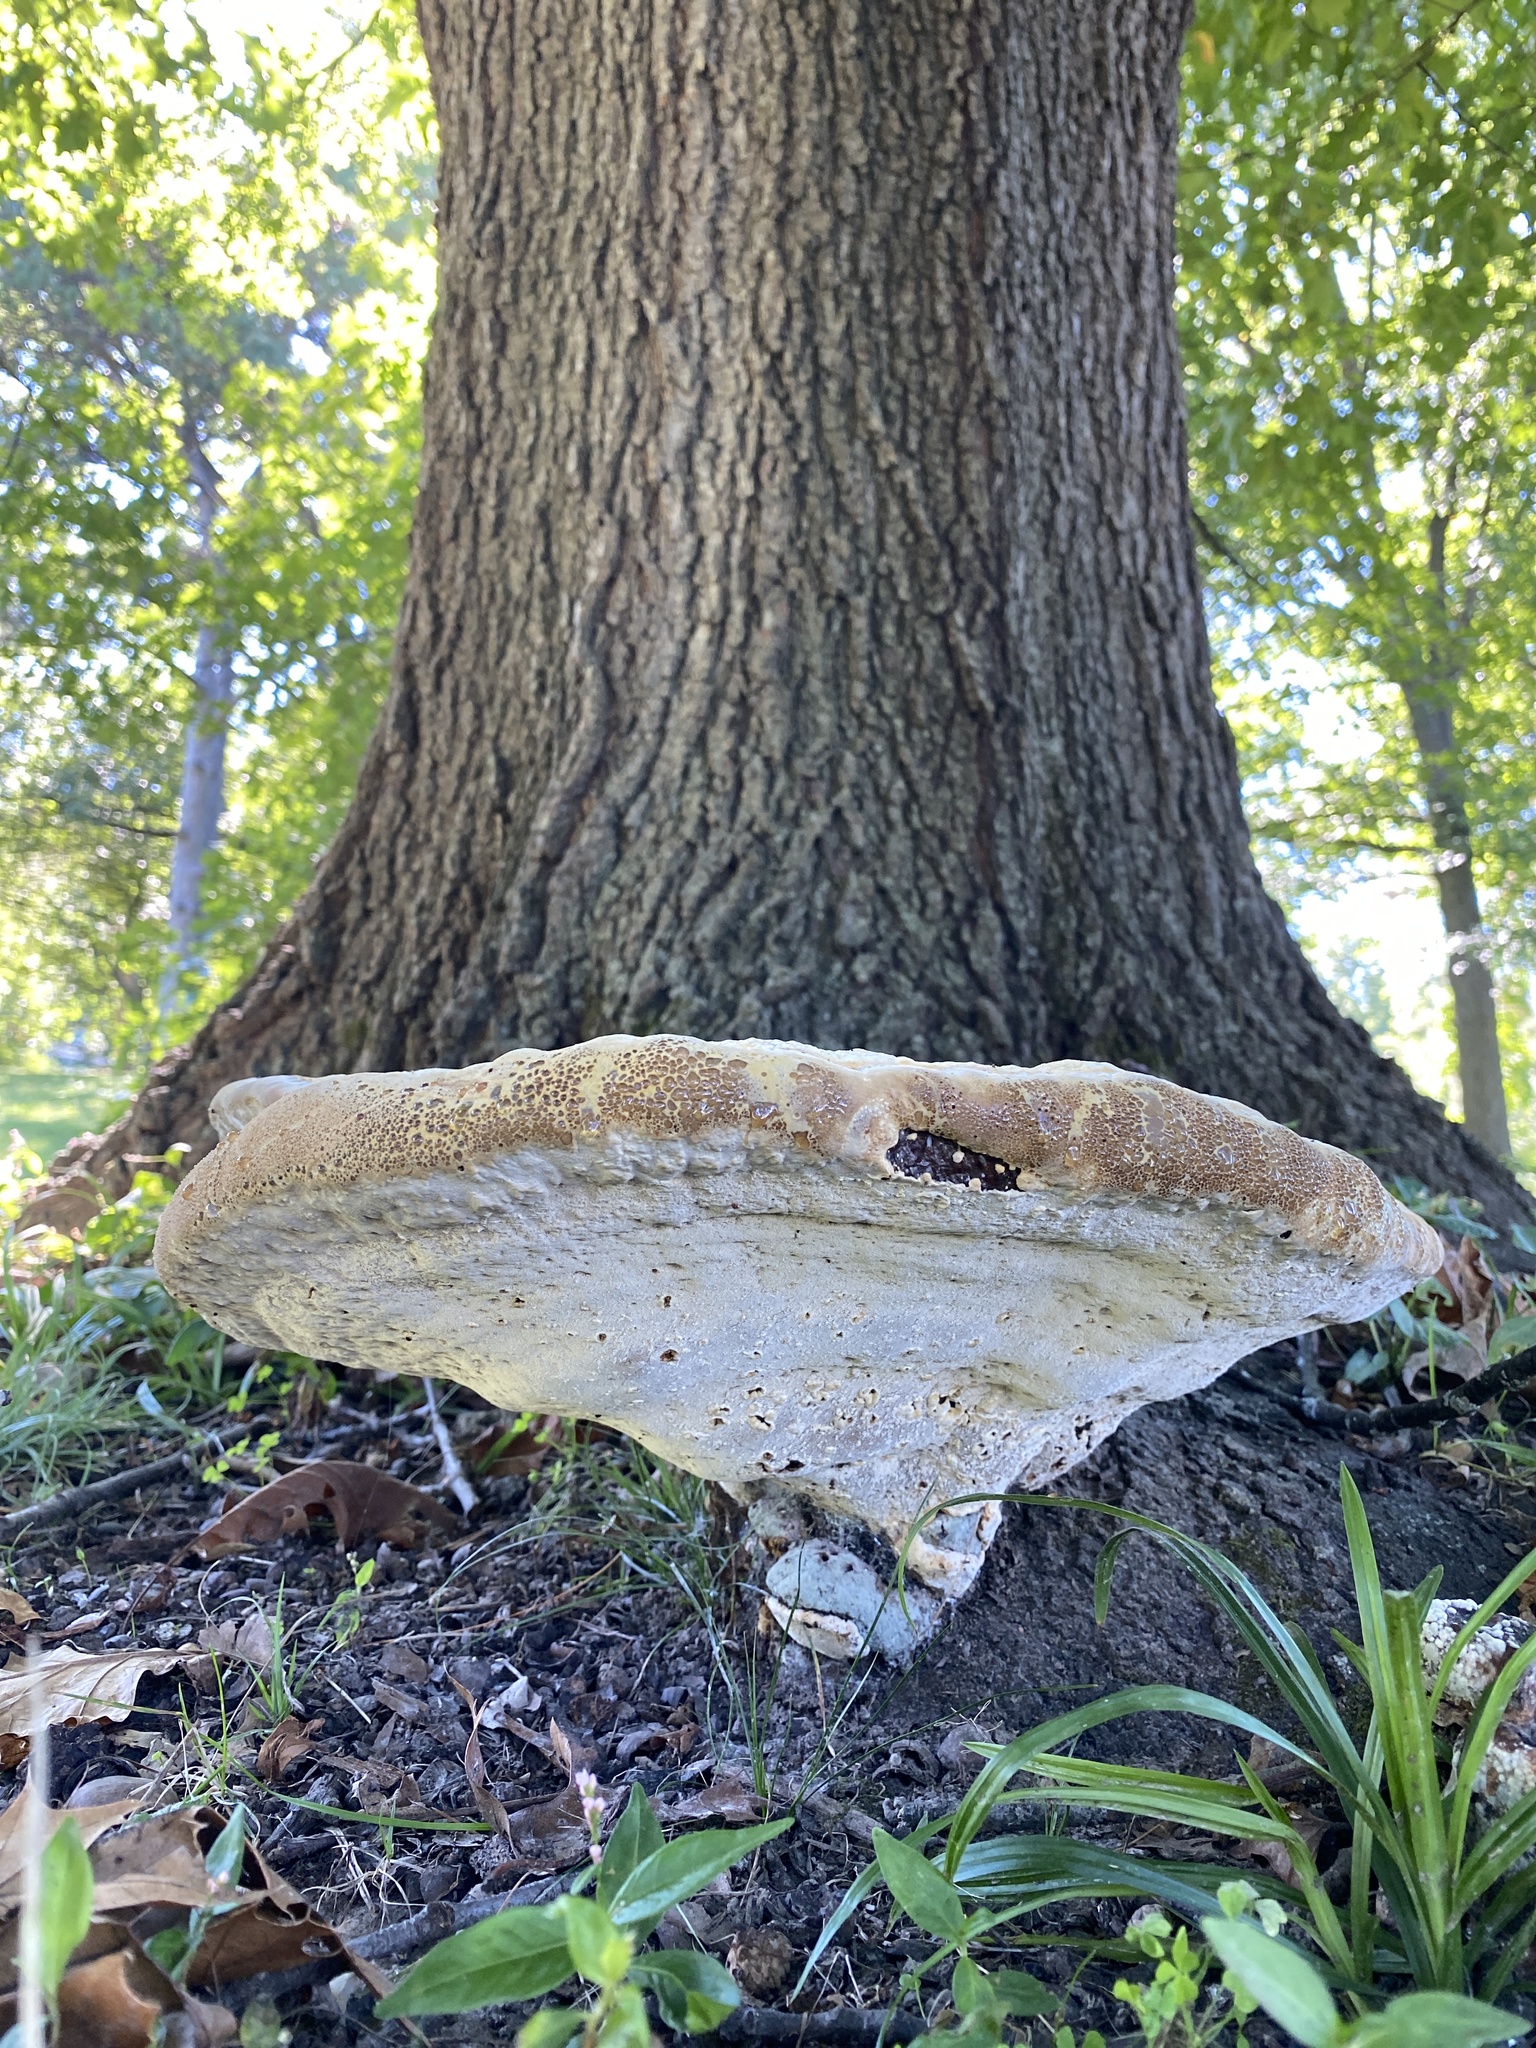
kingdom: Fungi
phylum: Basidiomycota
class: Agaricomycetes
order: Hymenochaetales
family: Hymenochaetaceae
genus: Pseudoinonotus
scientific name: Pseudoinonotus dryadeus
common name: Oak bracket
